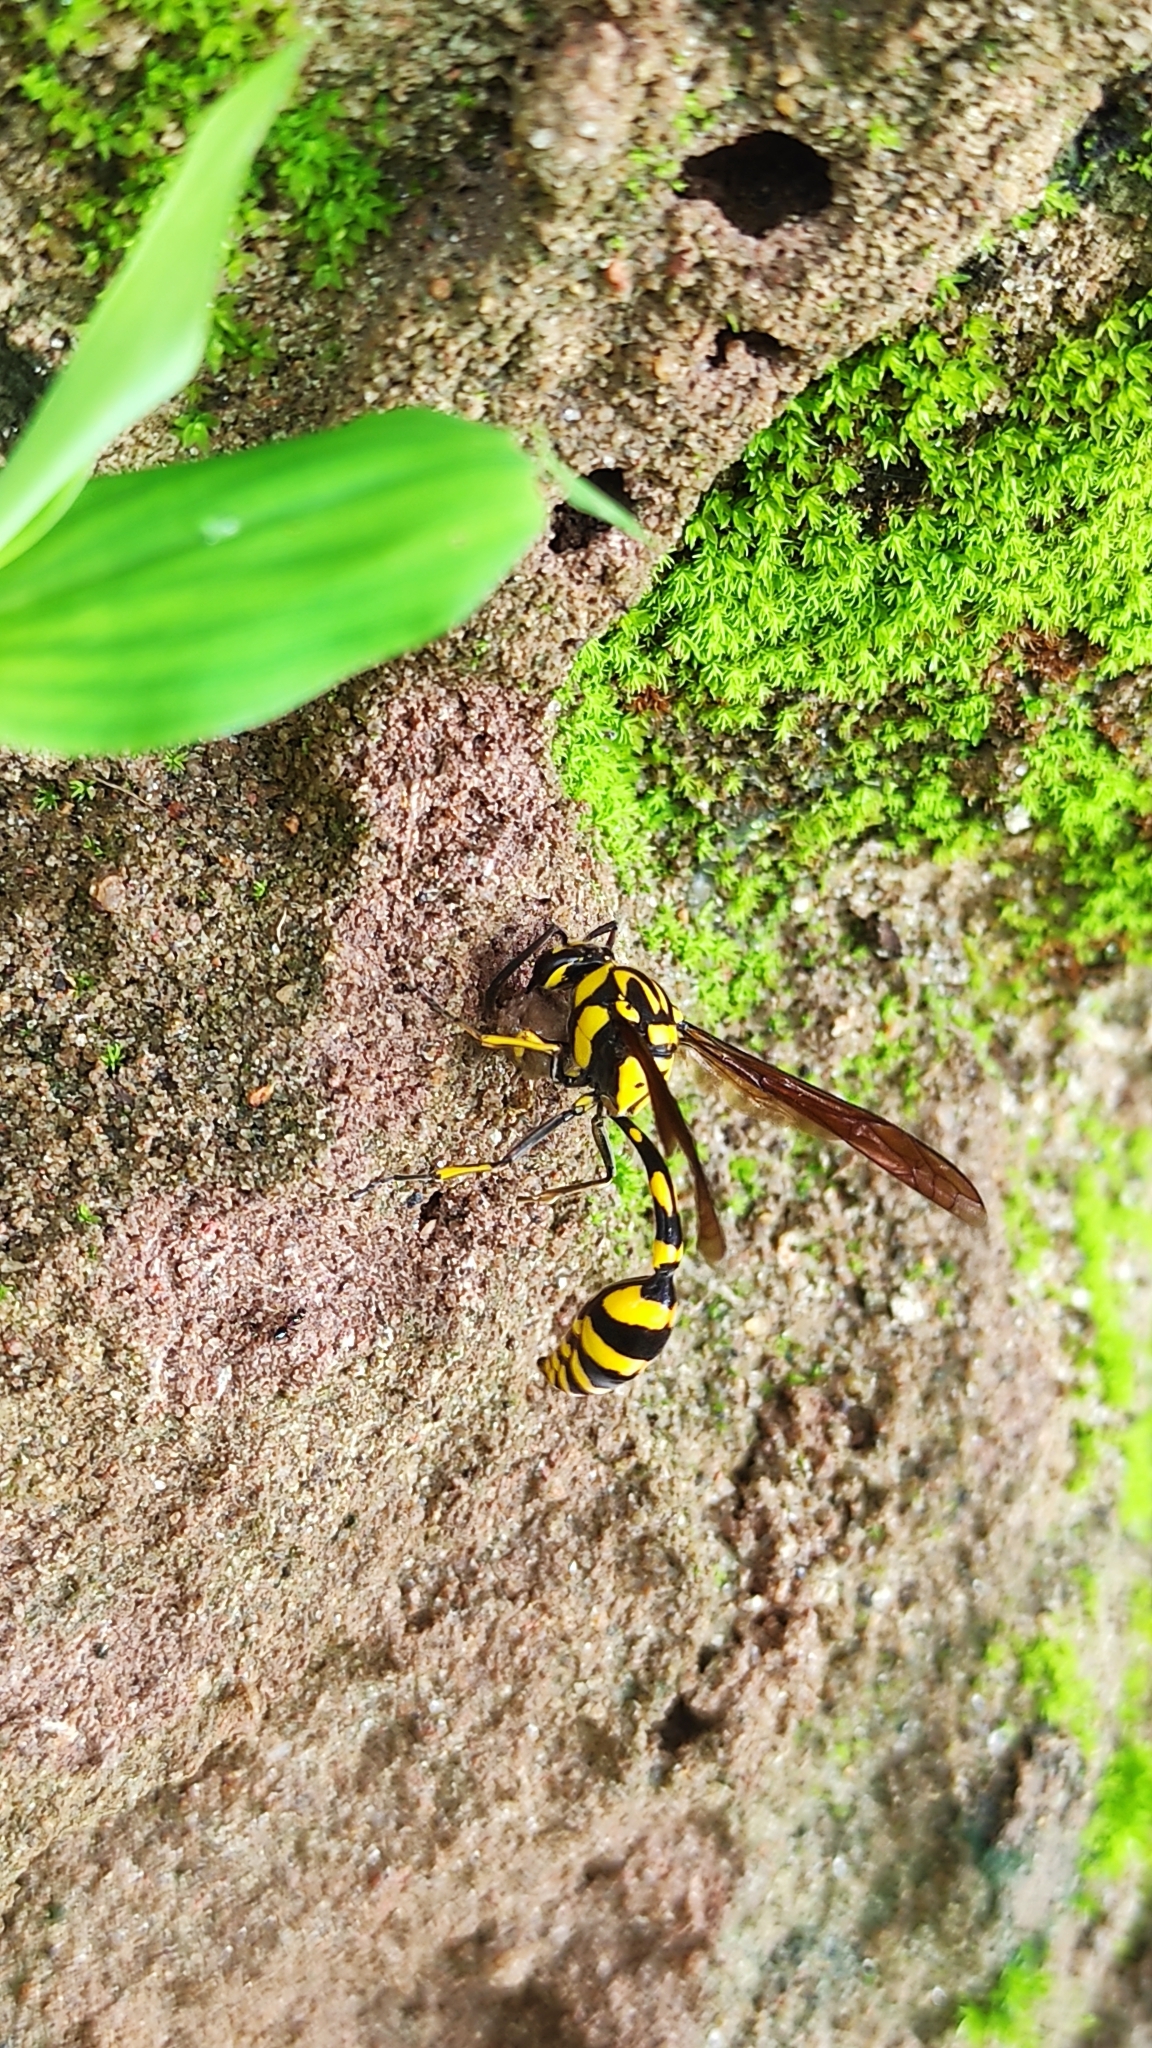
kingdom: Animalia
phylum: Arthropoda
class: Insecta
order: Hymenoptera
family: Eumenidae
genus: Phimenes
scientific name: Phimenes flavopictus
